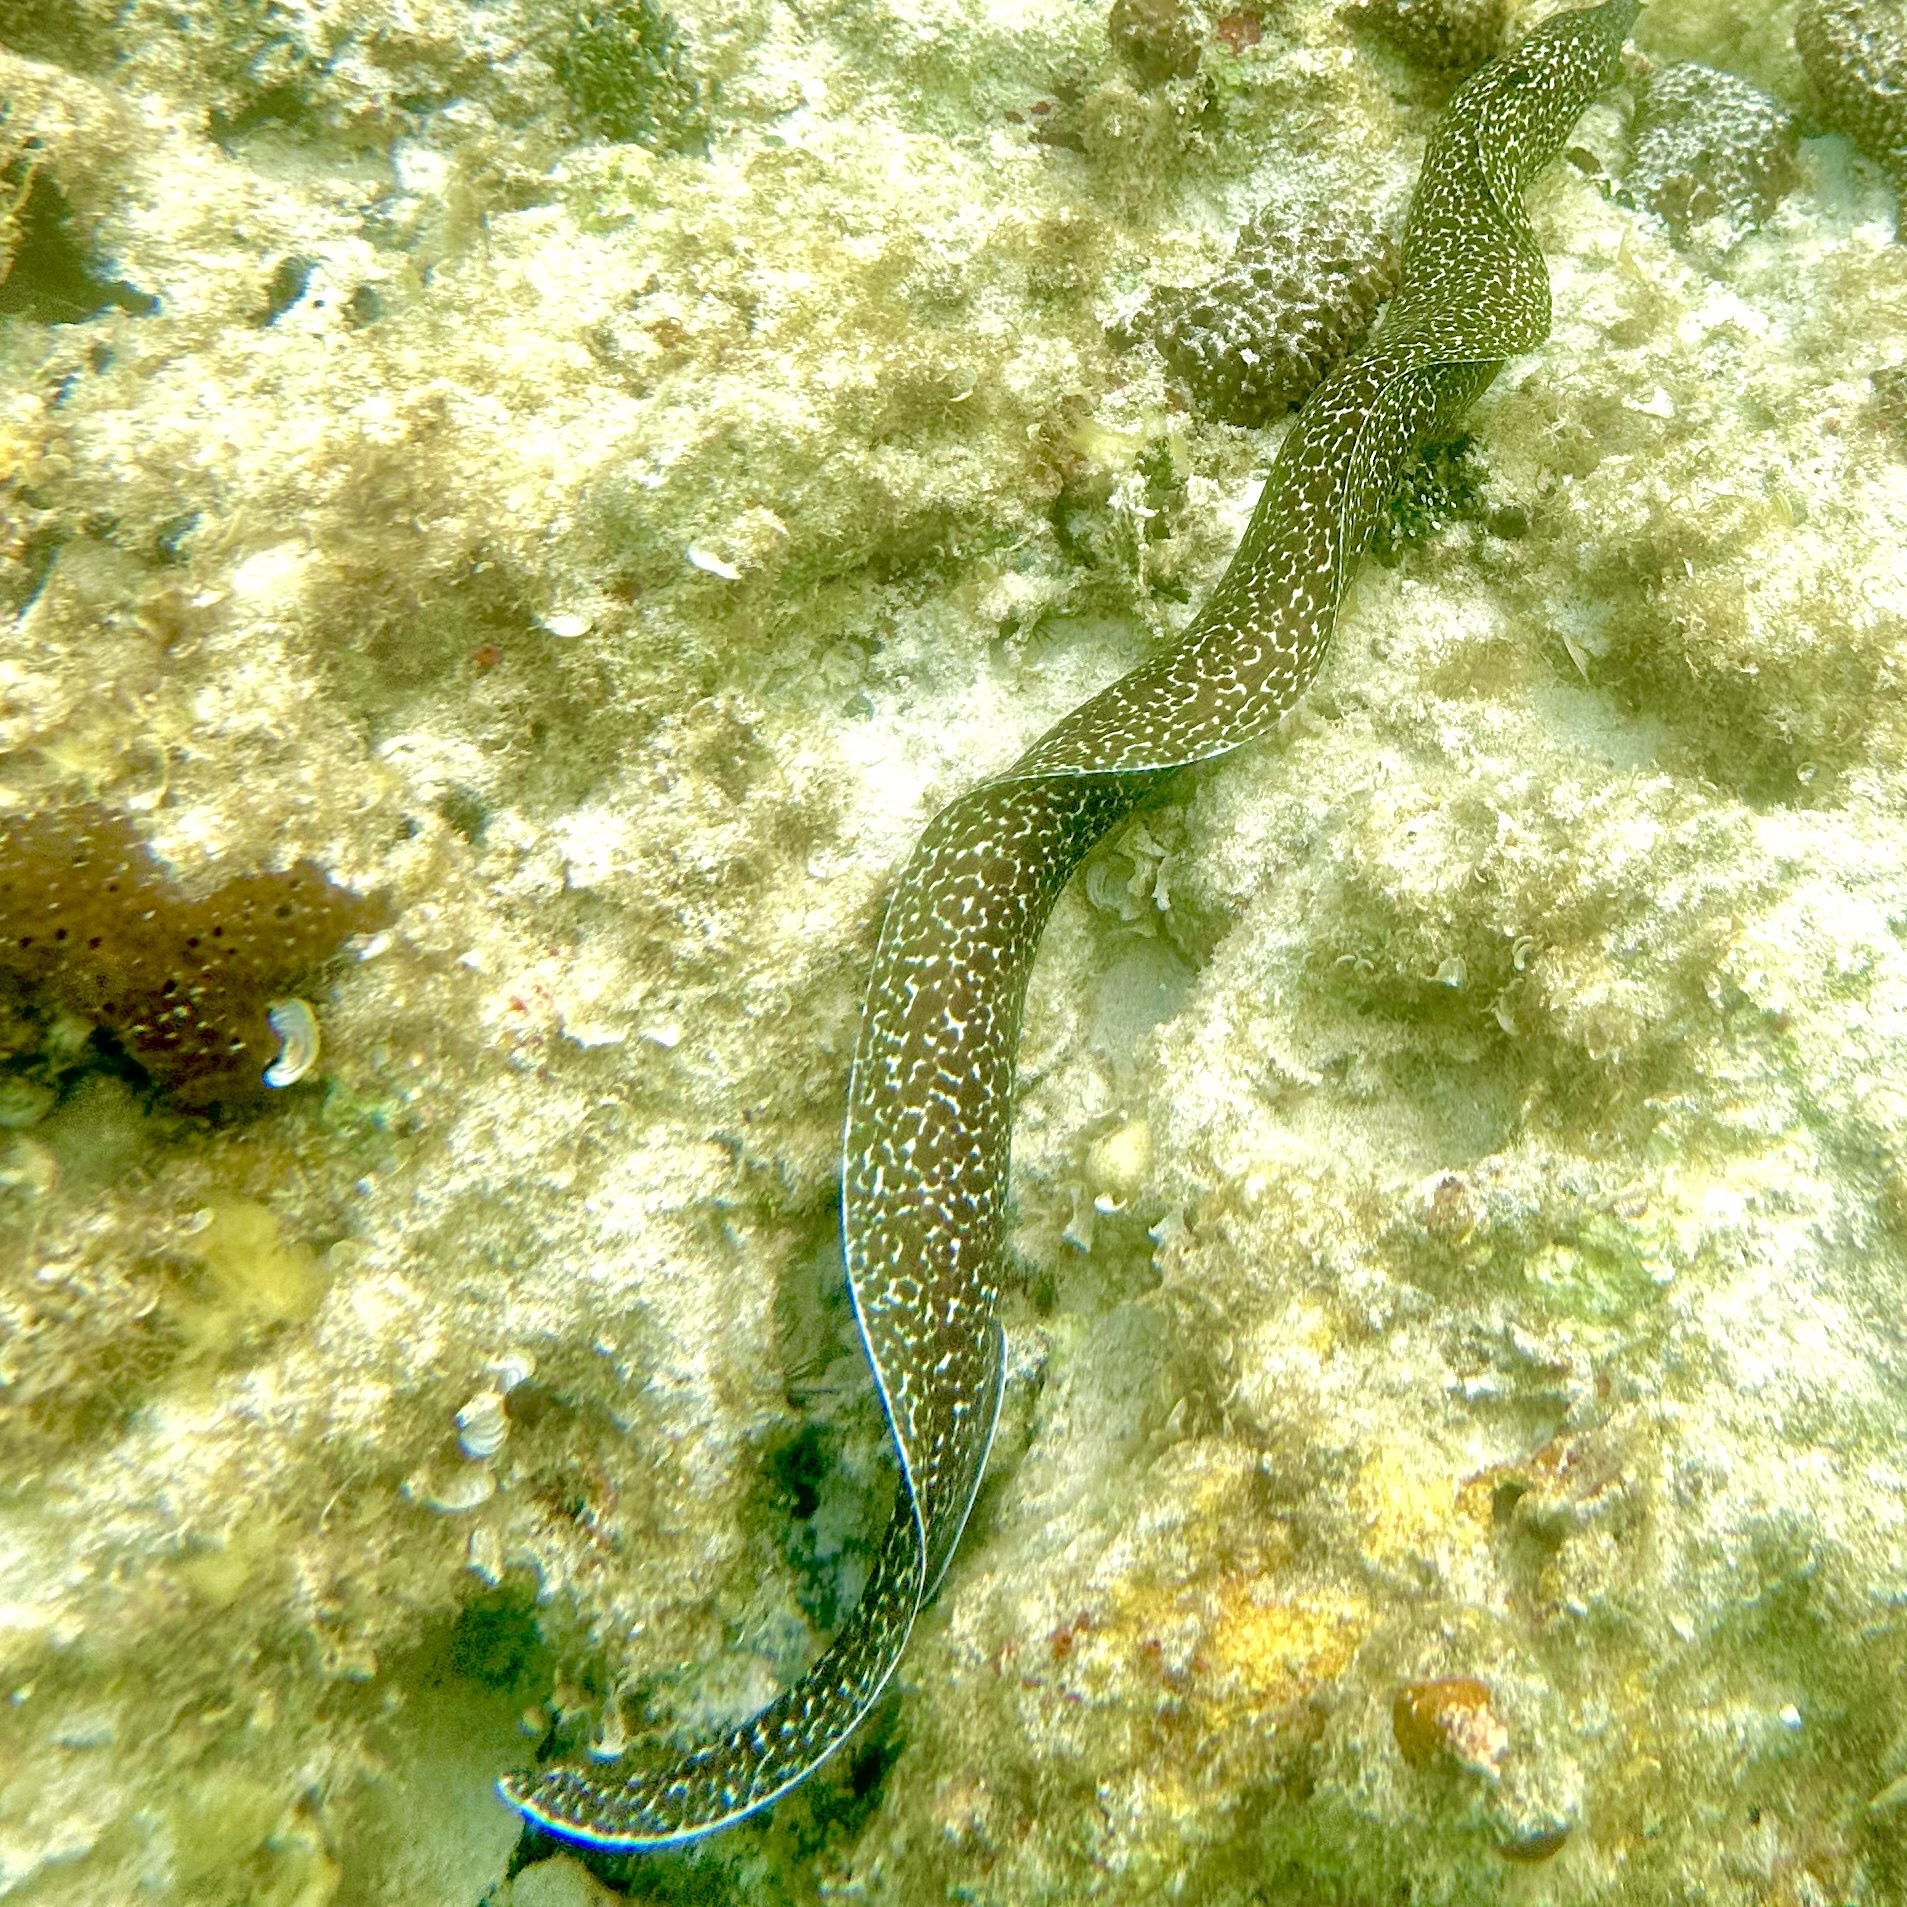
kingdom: Animalia
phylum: Chordata
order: Anguilliformes
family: Muraenidae
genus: Gymnothorax
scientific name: Gymnothorax moringa
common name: Spotted moray
